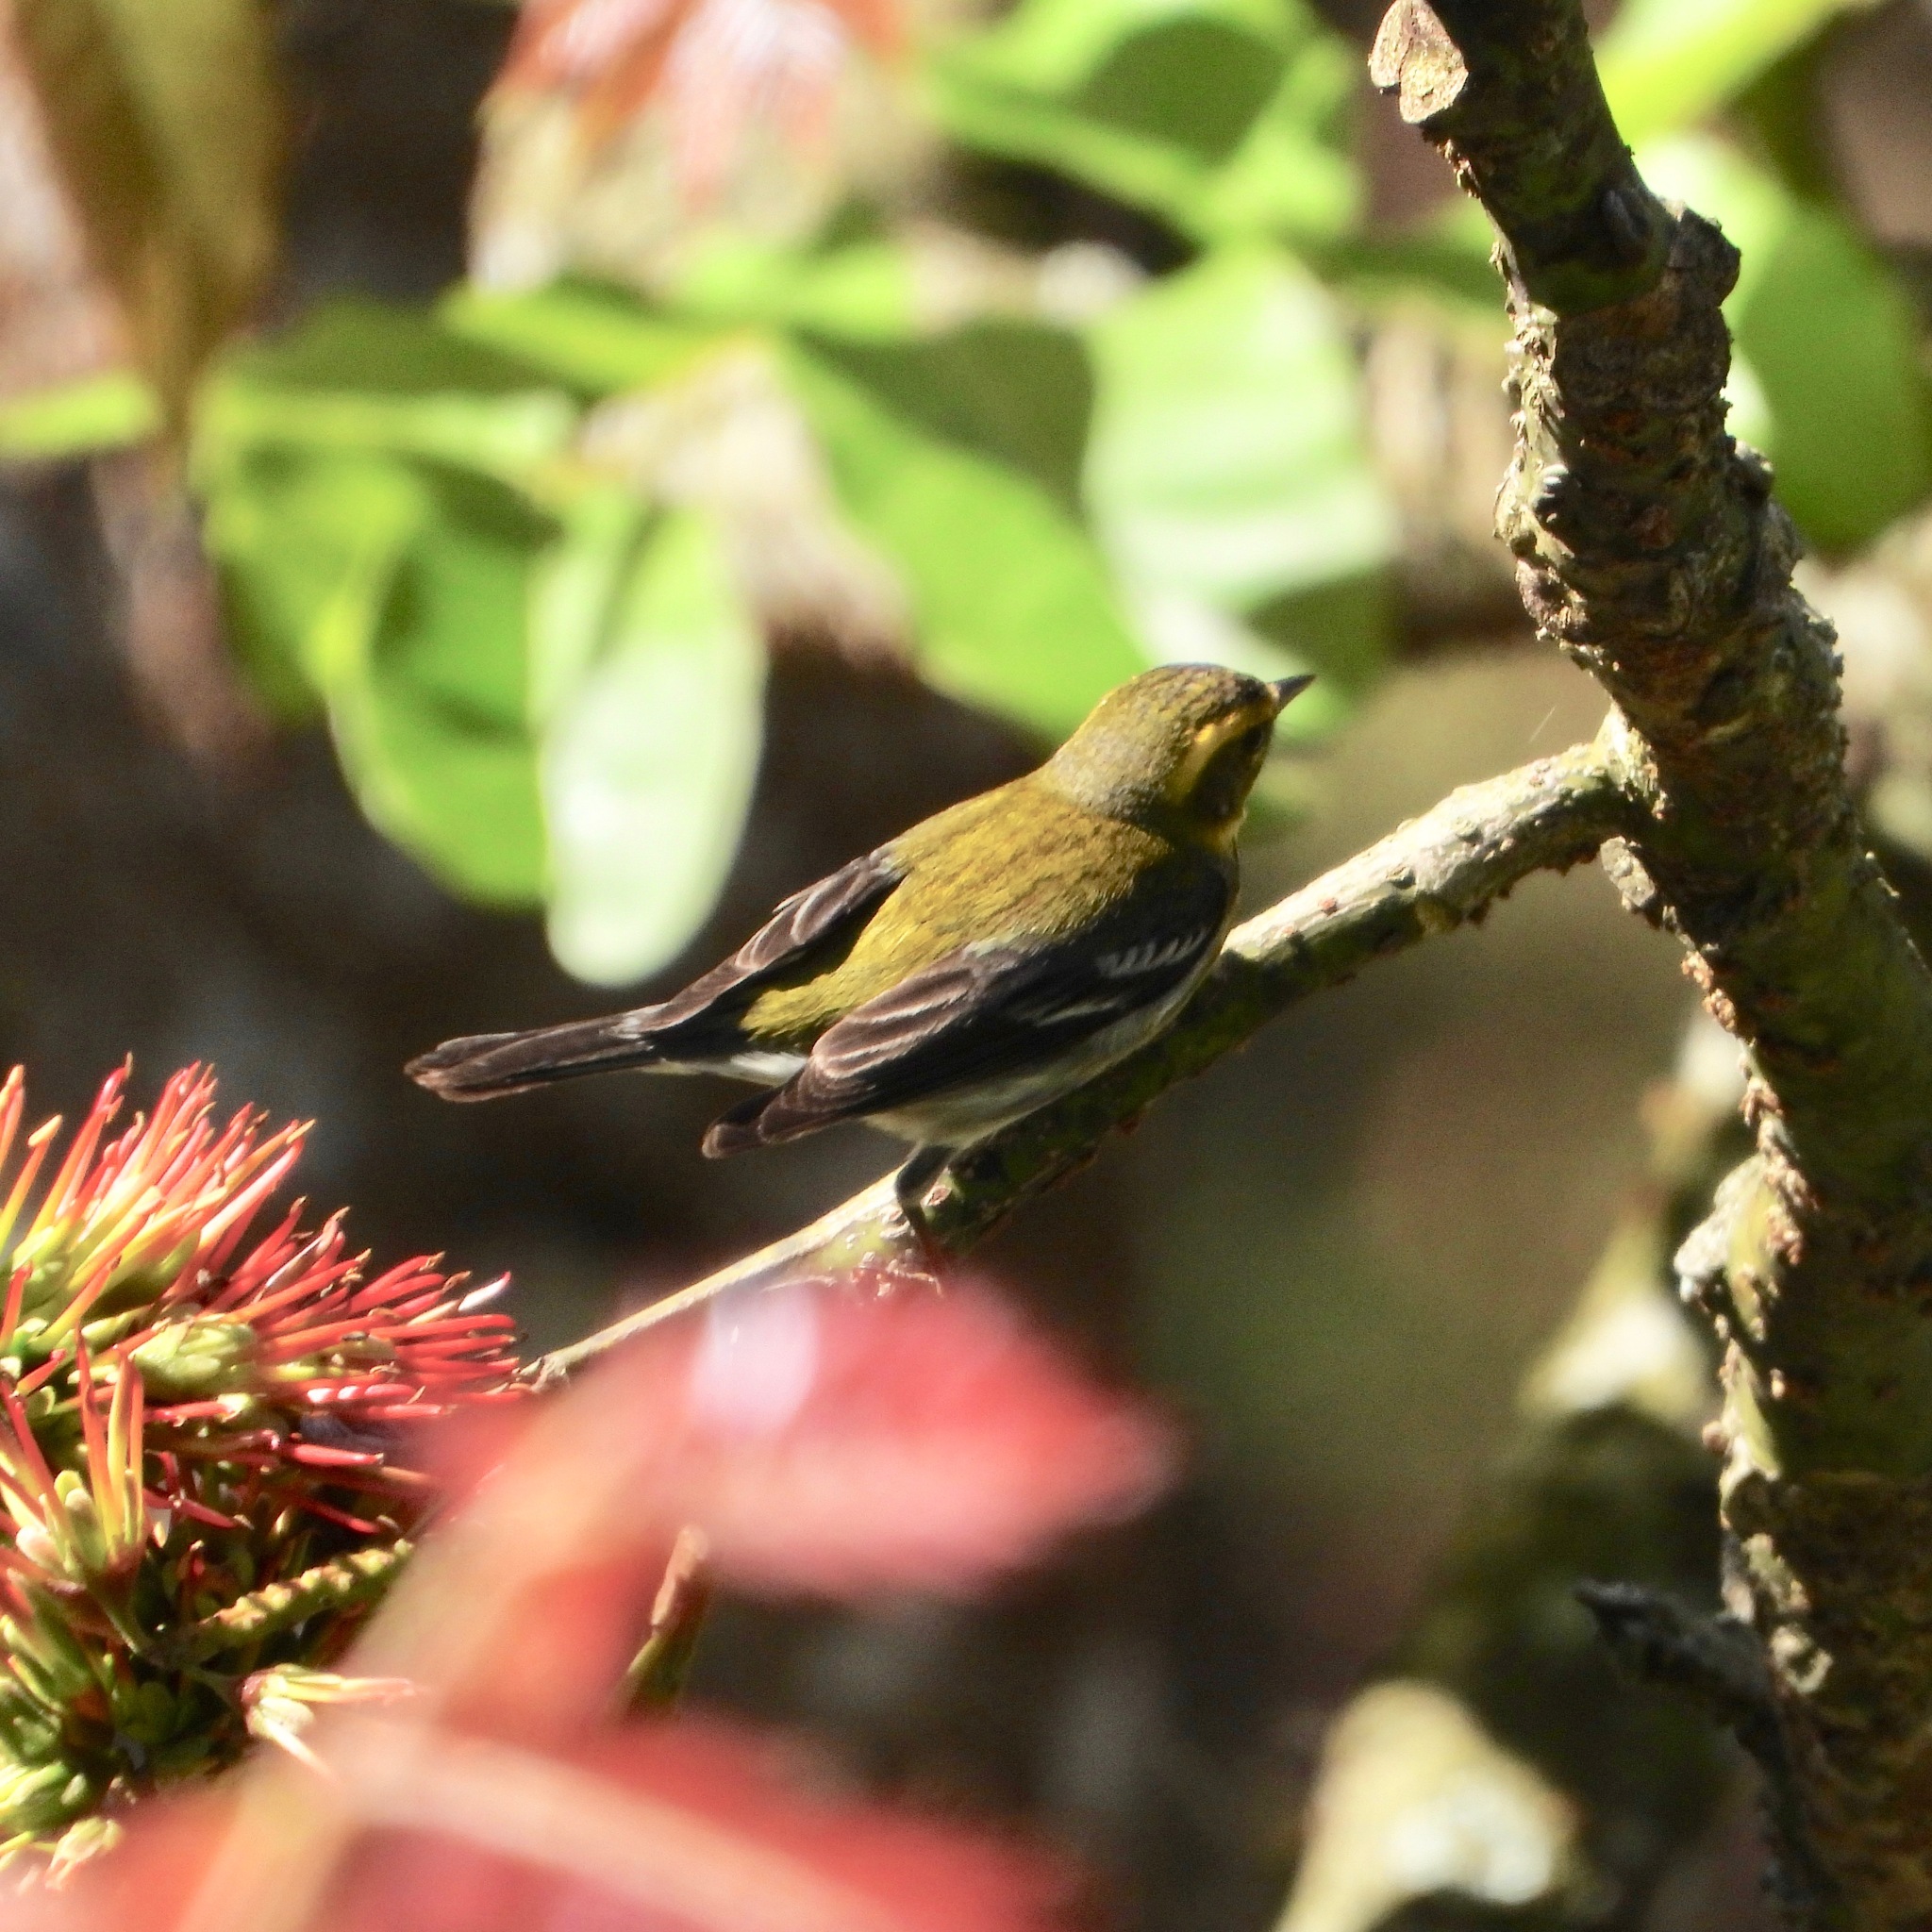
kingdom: Animalia
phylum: Chordata
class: Aves
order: Passeriformes
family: Parulidae
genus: Setophaga
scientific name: Setophaga townsendi
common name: Townsend's warbler
